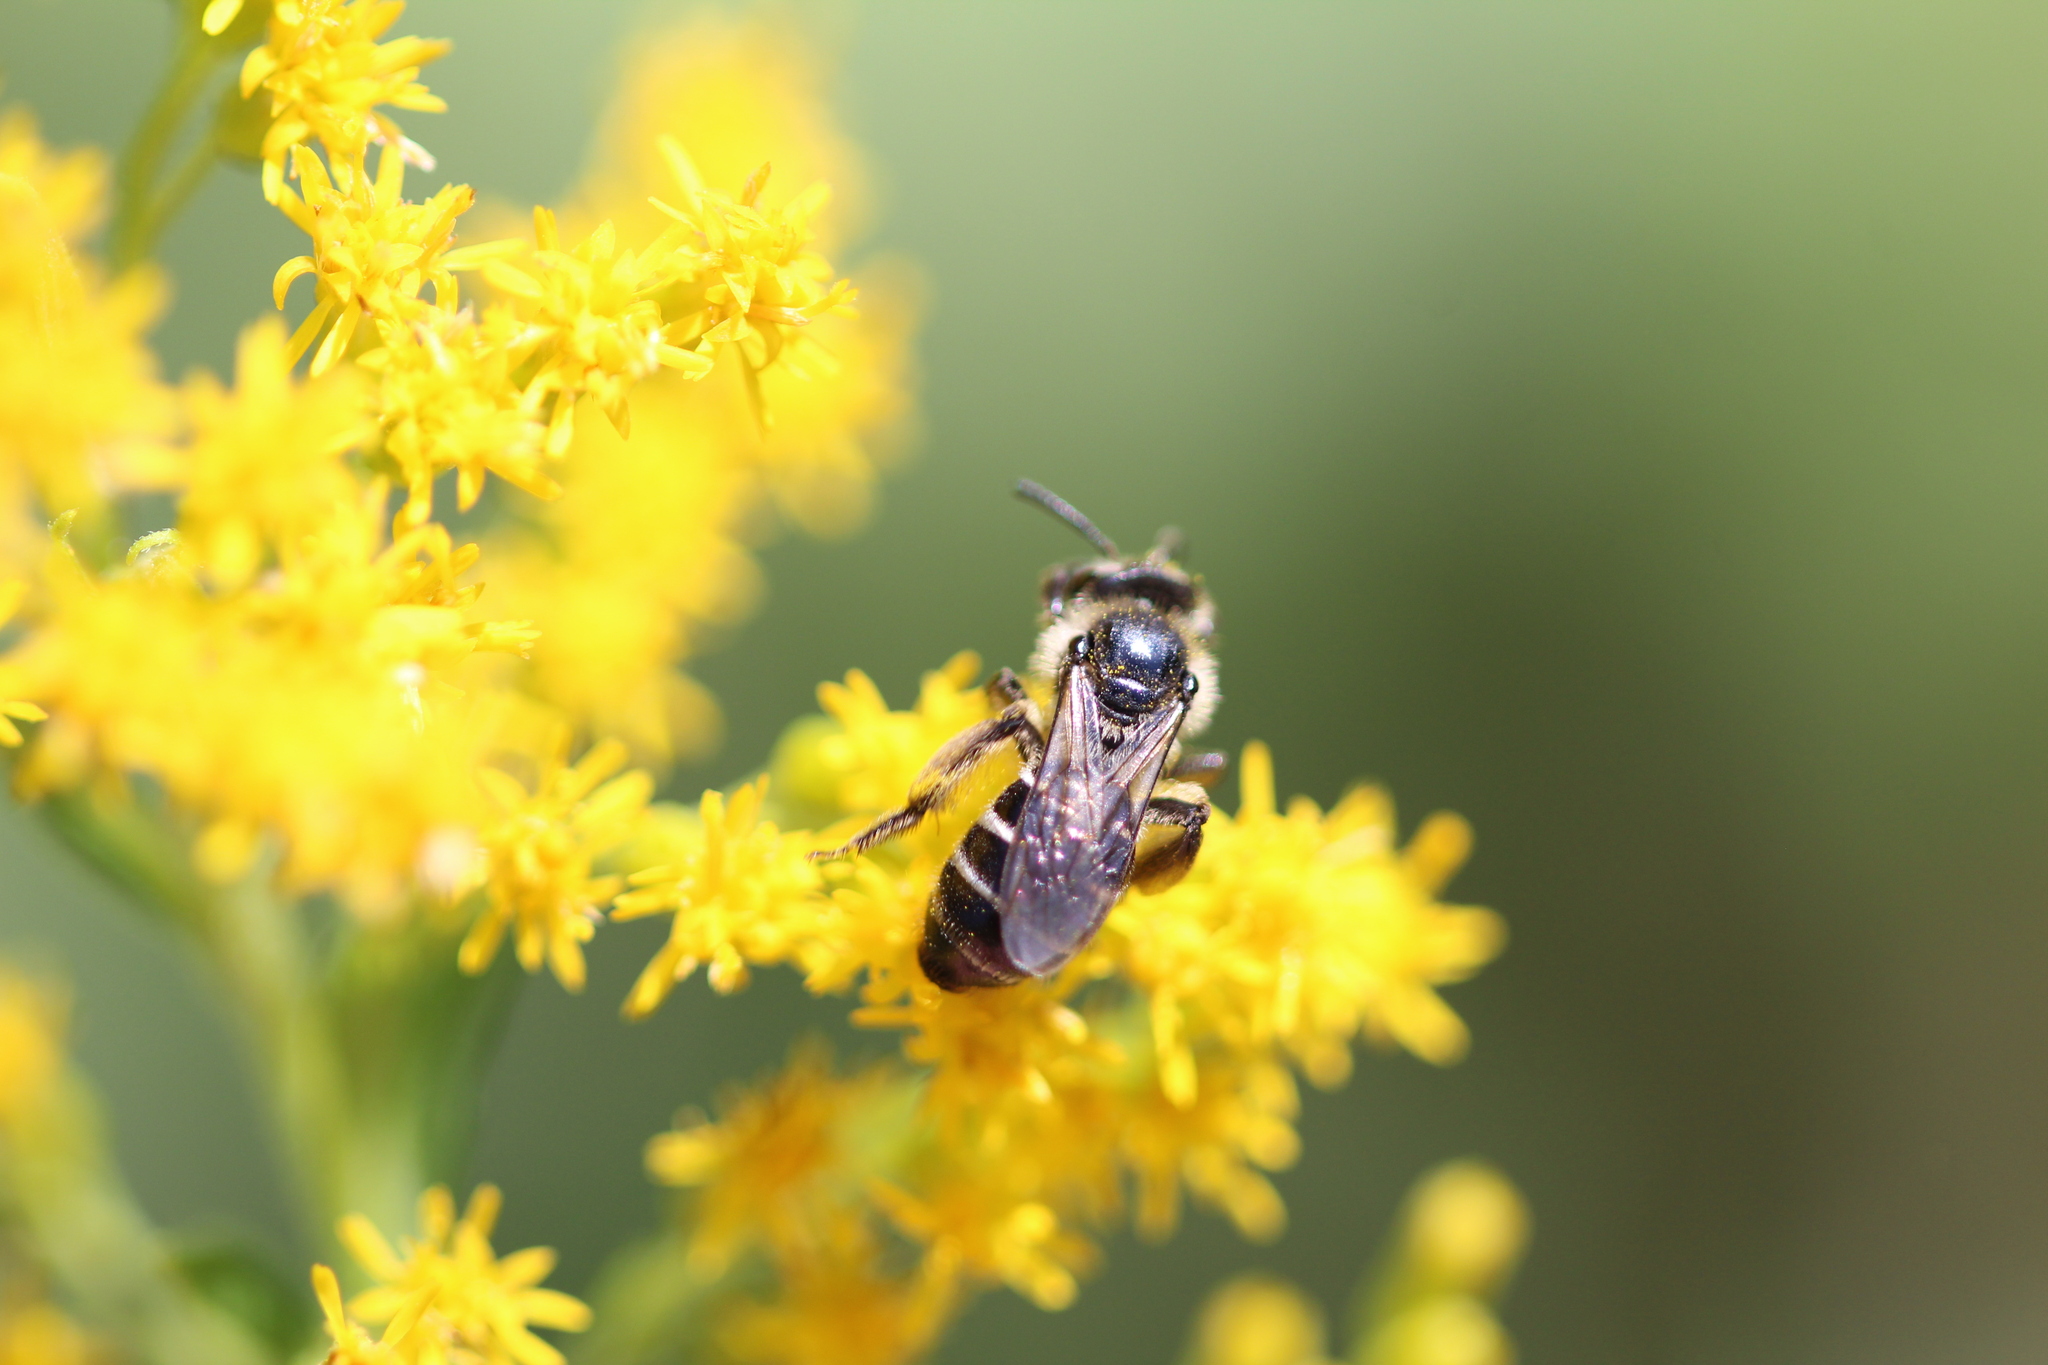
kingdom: Animalia
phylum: Arthropoda
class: Insecta
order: Hymenoptera
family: Halictidae
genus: Halictus
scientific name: Halictus rubicundus
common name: Orange-legged furrow bee
